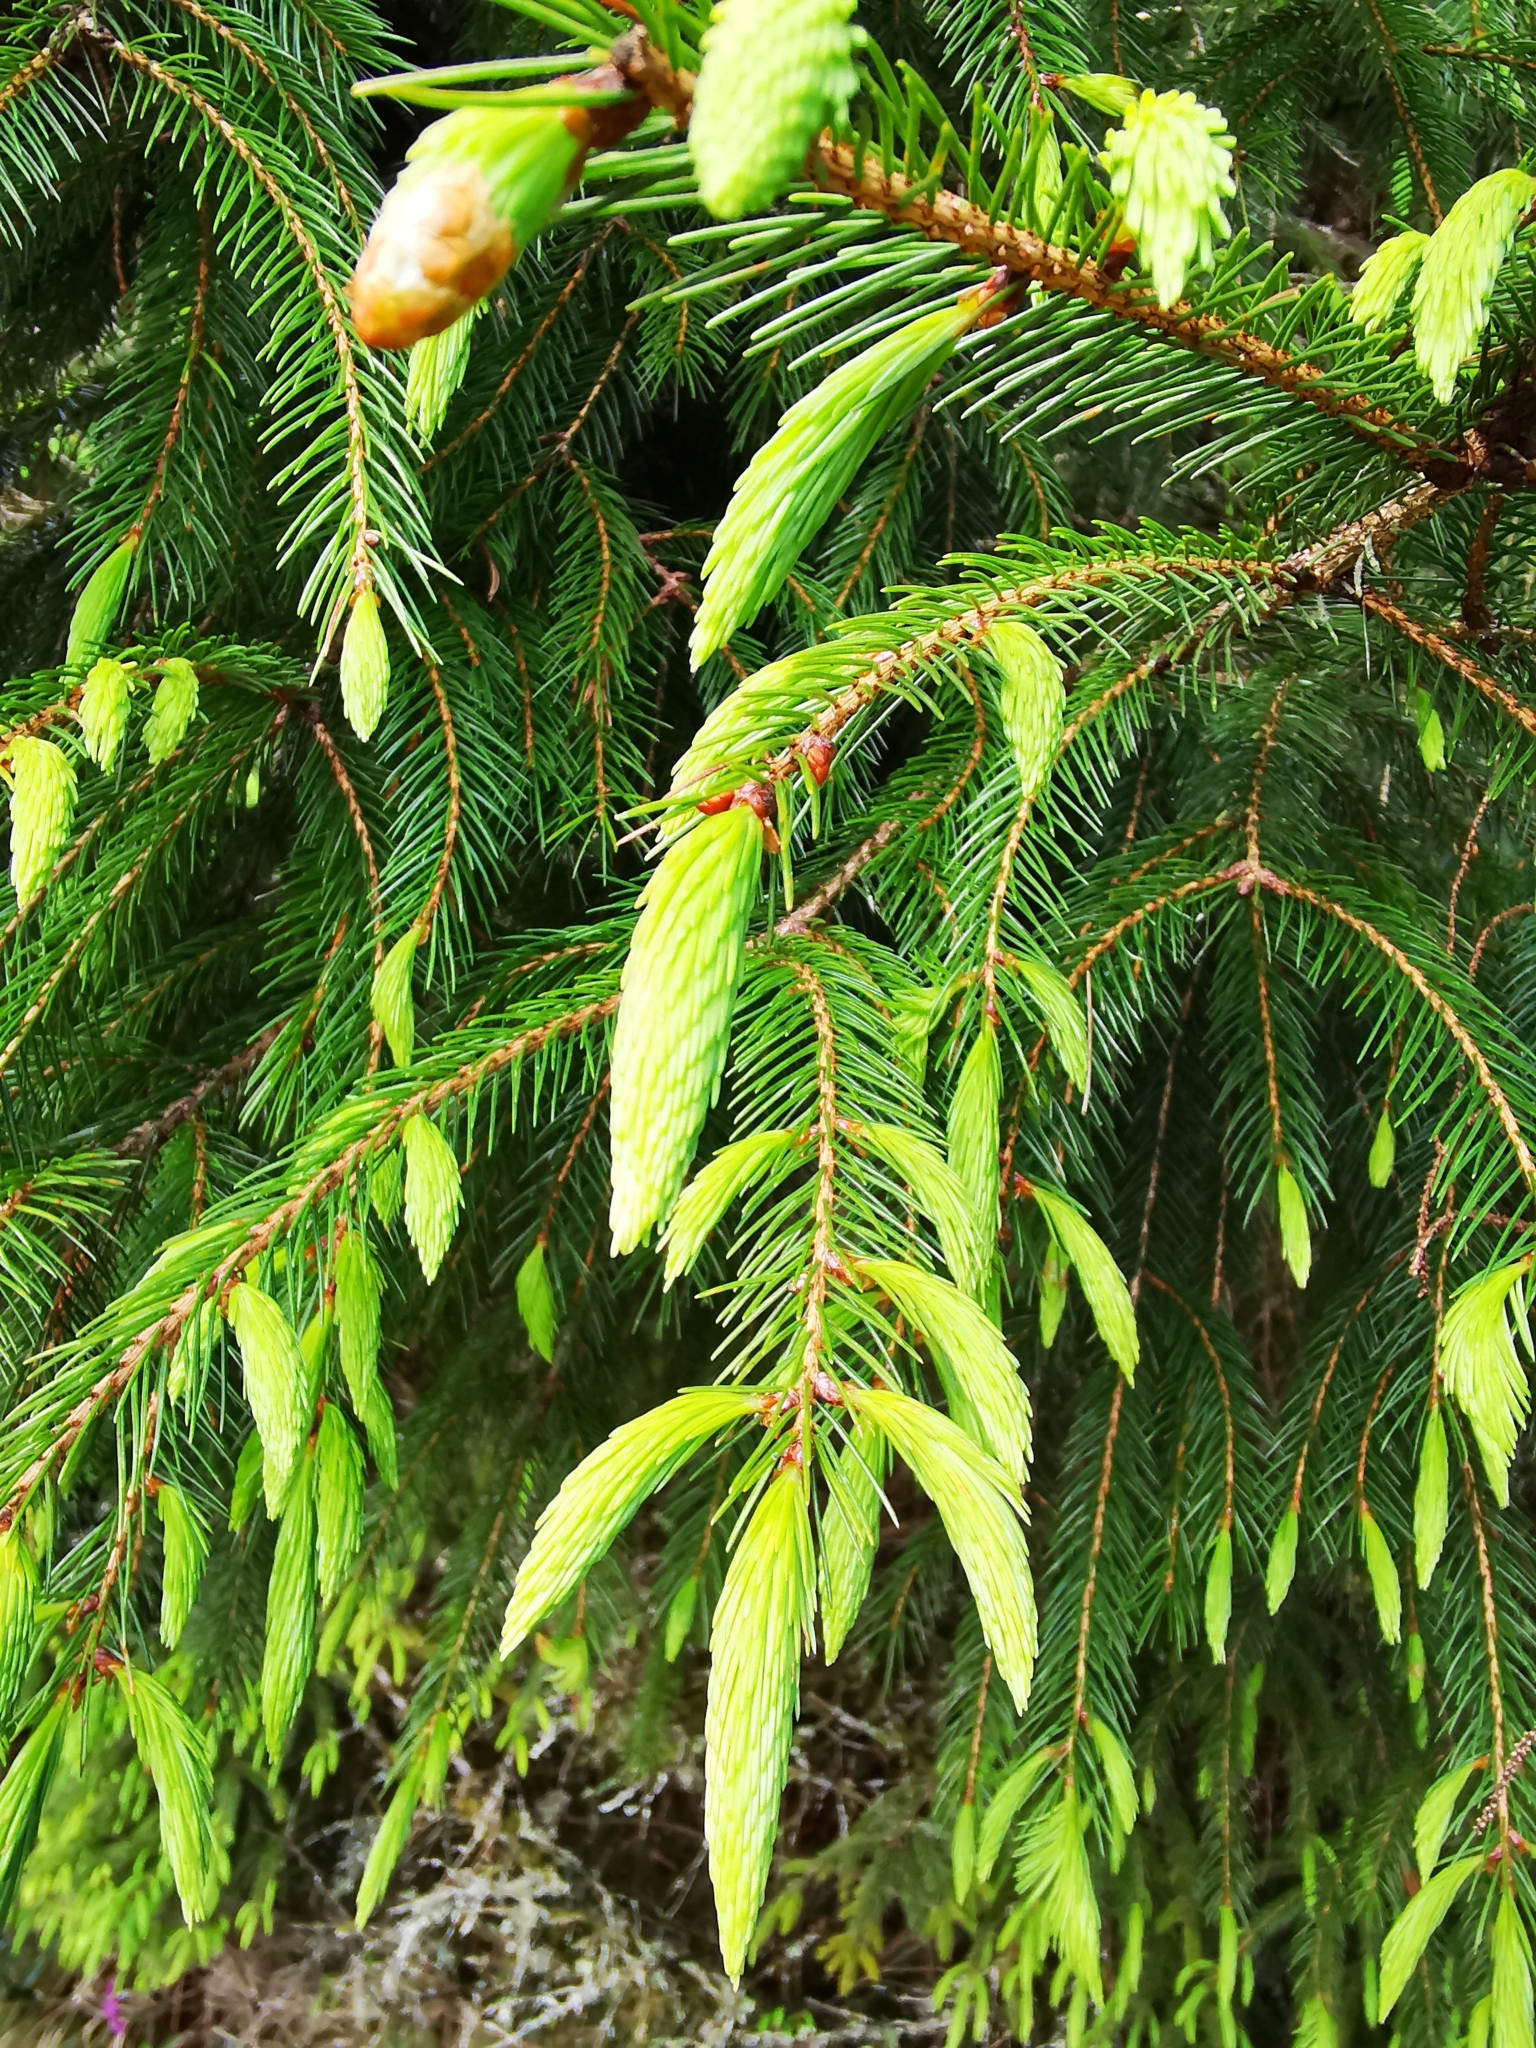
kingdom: Plantae
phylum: Tracheophyta
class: Pinopsida
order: Pinales
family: Pinaceae
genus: Picea
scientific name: Picea morrisonicola
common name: Mount morrison spruce
